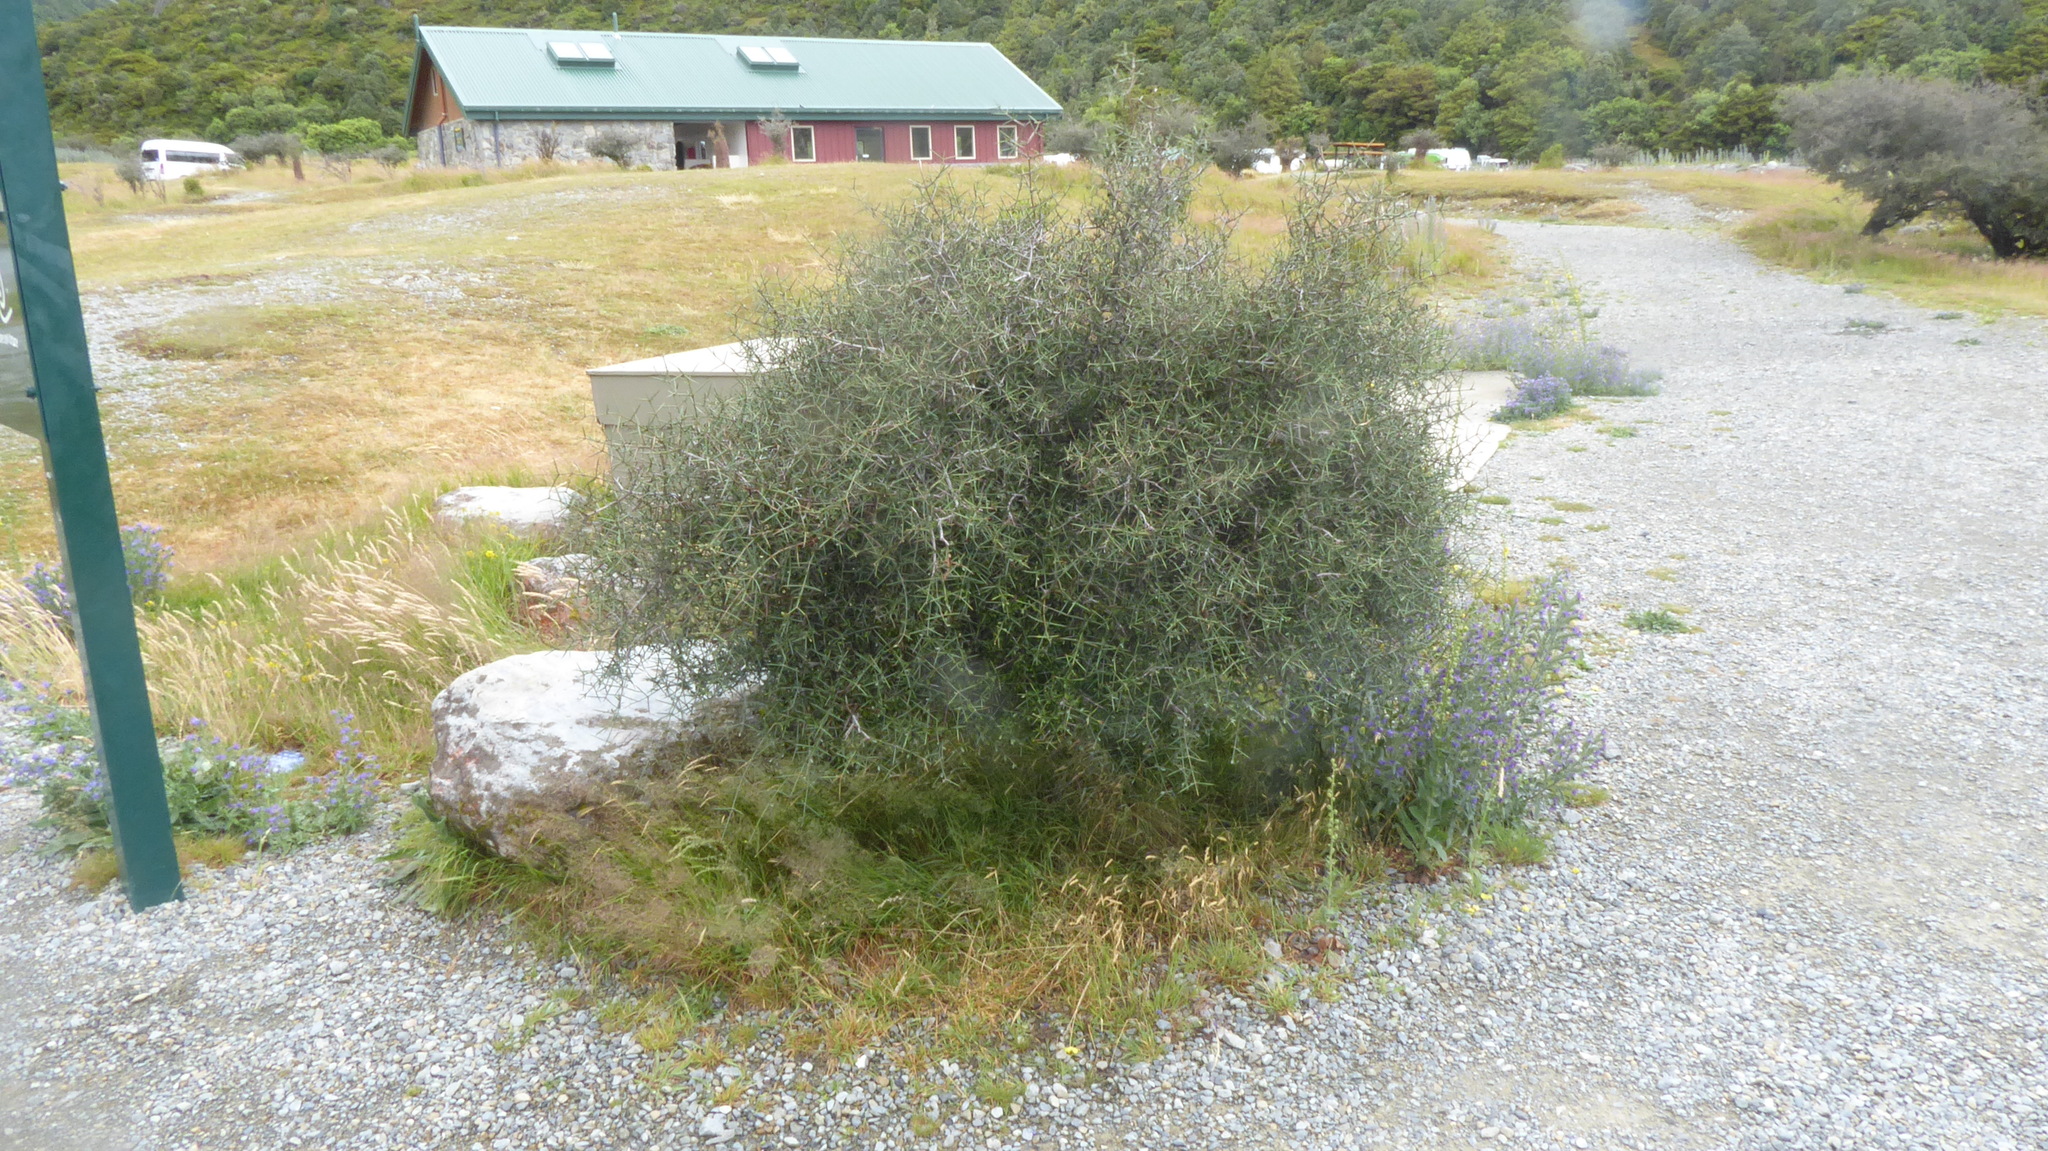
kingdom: Plantae
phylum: Tracheophyta
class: Magnoliopsida
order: Rosales
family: Rhamnaceae
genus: Discaria
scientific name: Discaria toumatou
